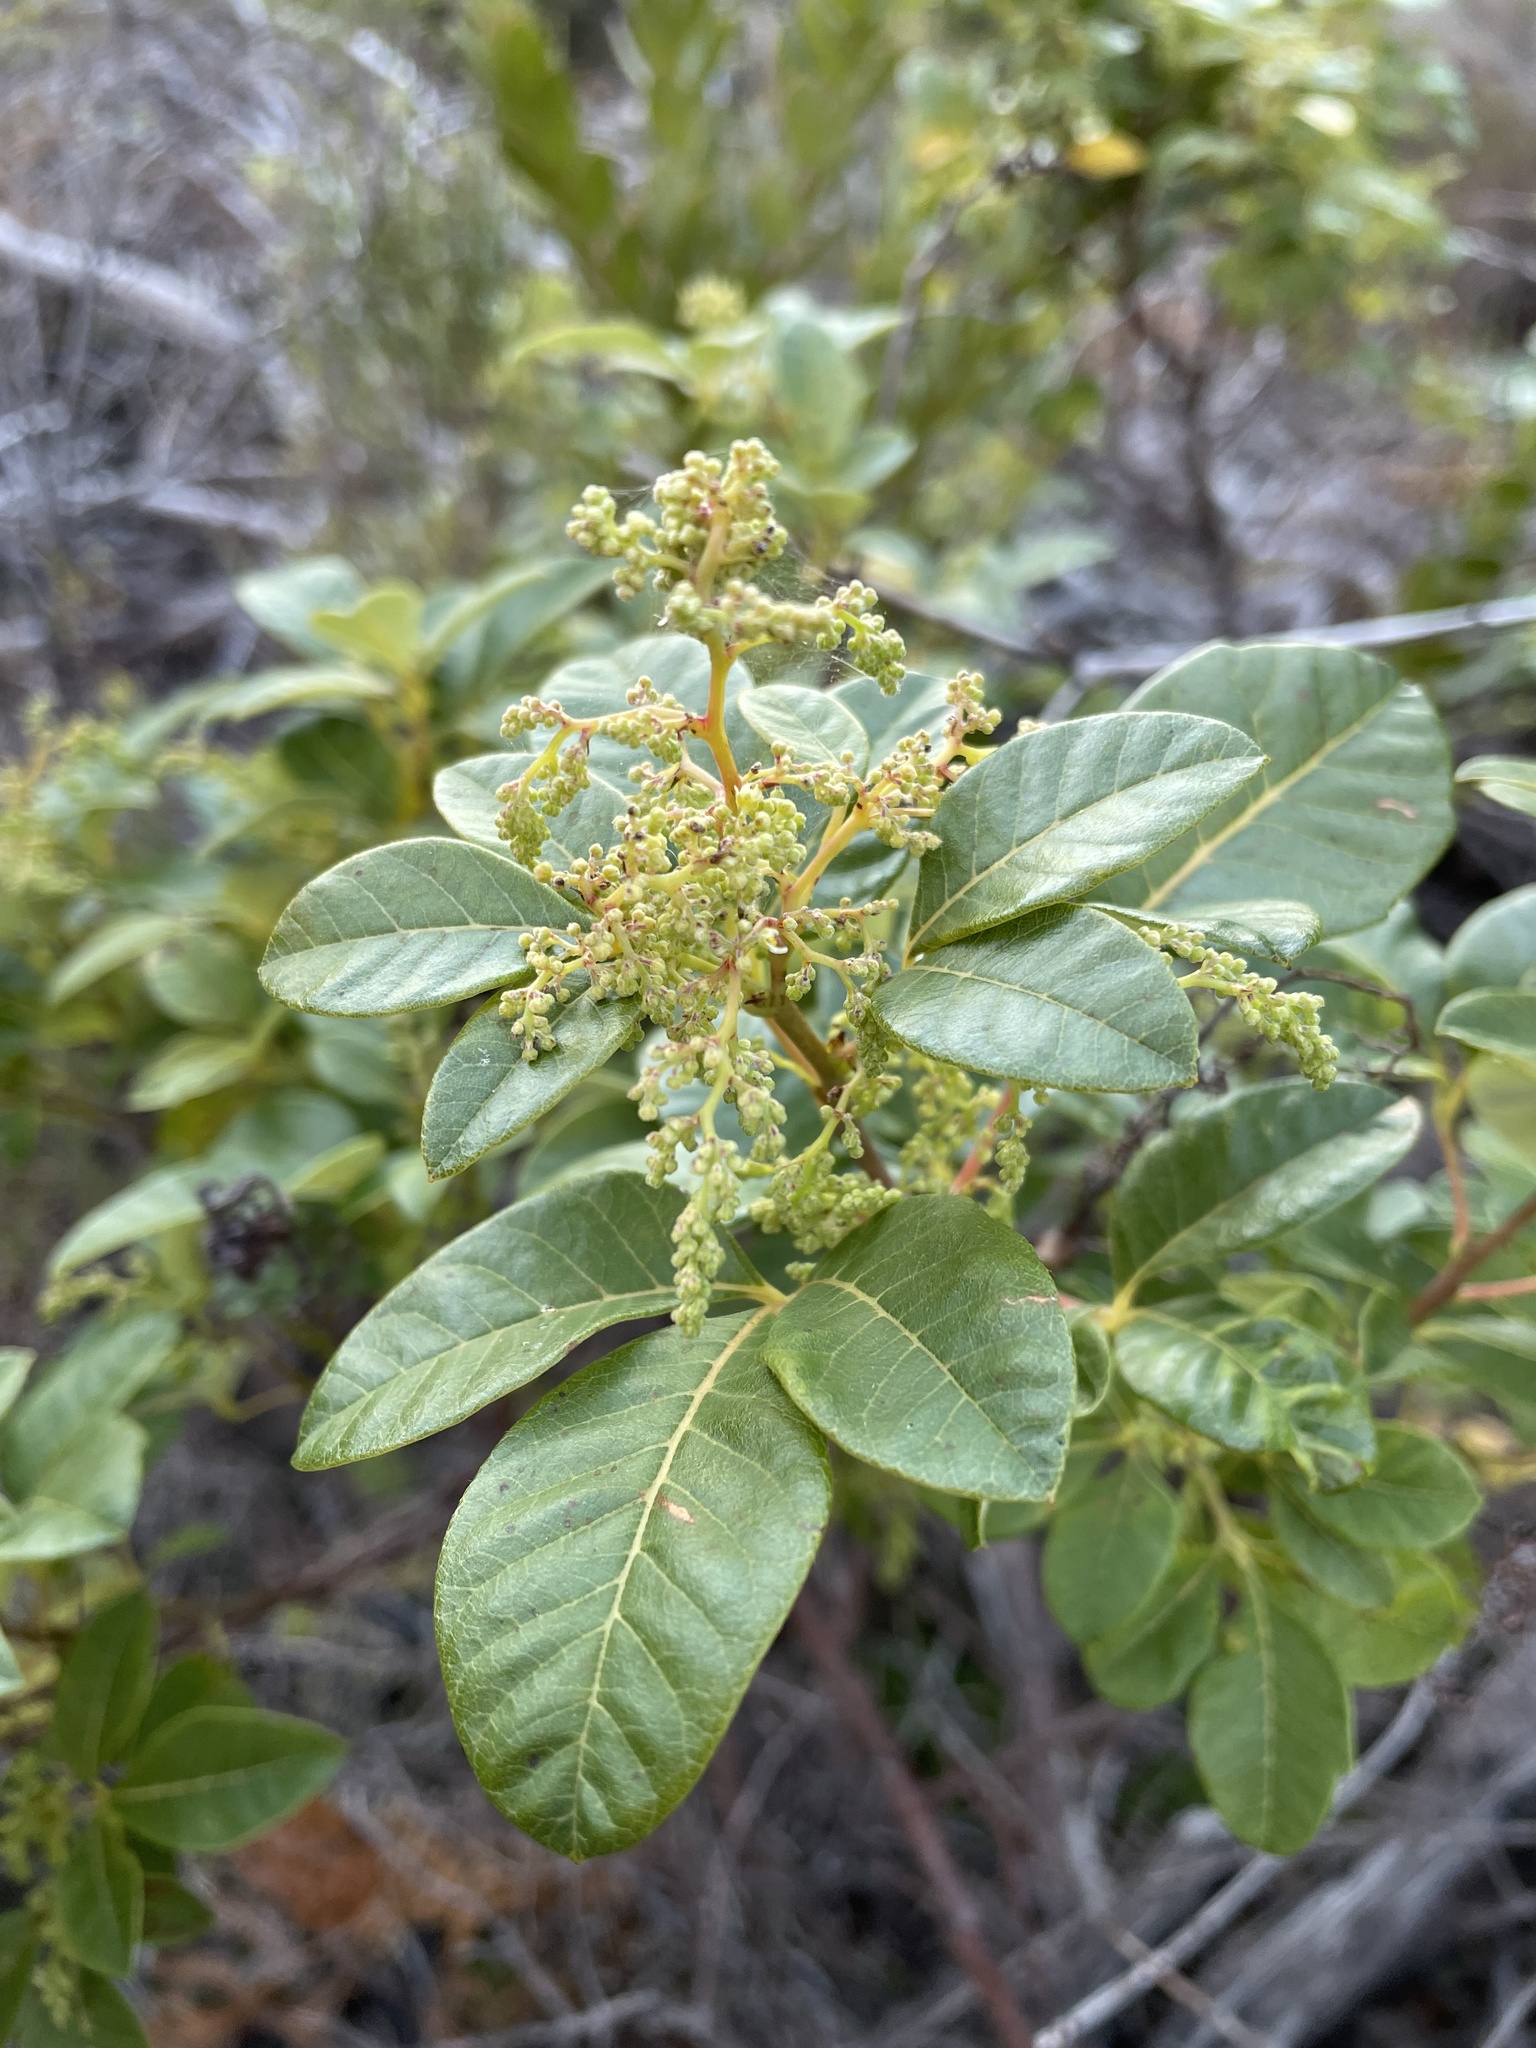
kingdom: Plantae
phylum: Tracheophyta
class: Magnoliopsida
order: Sapindales
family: Anacardiaceae
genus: Searsia
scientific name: Searsia tomentosa
